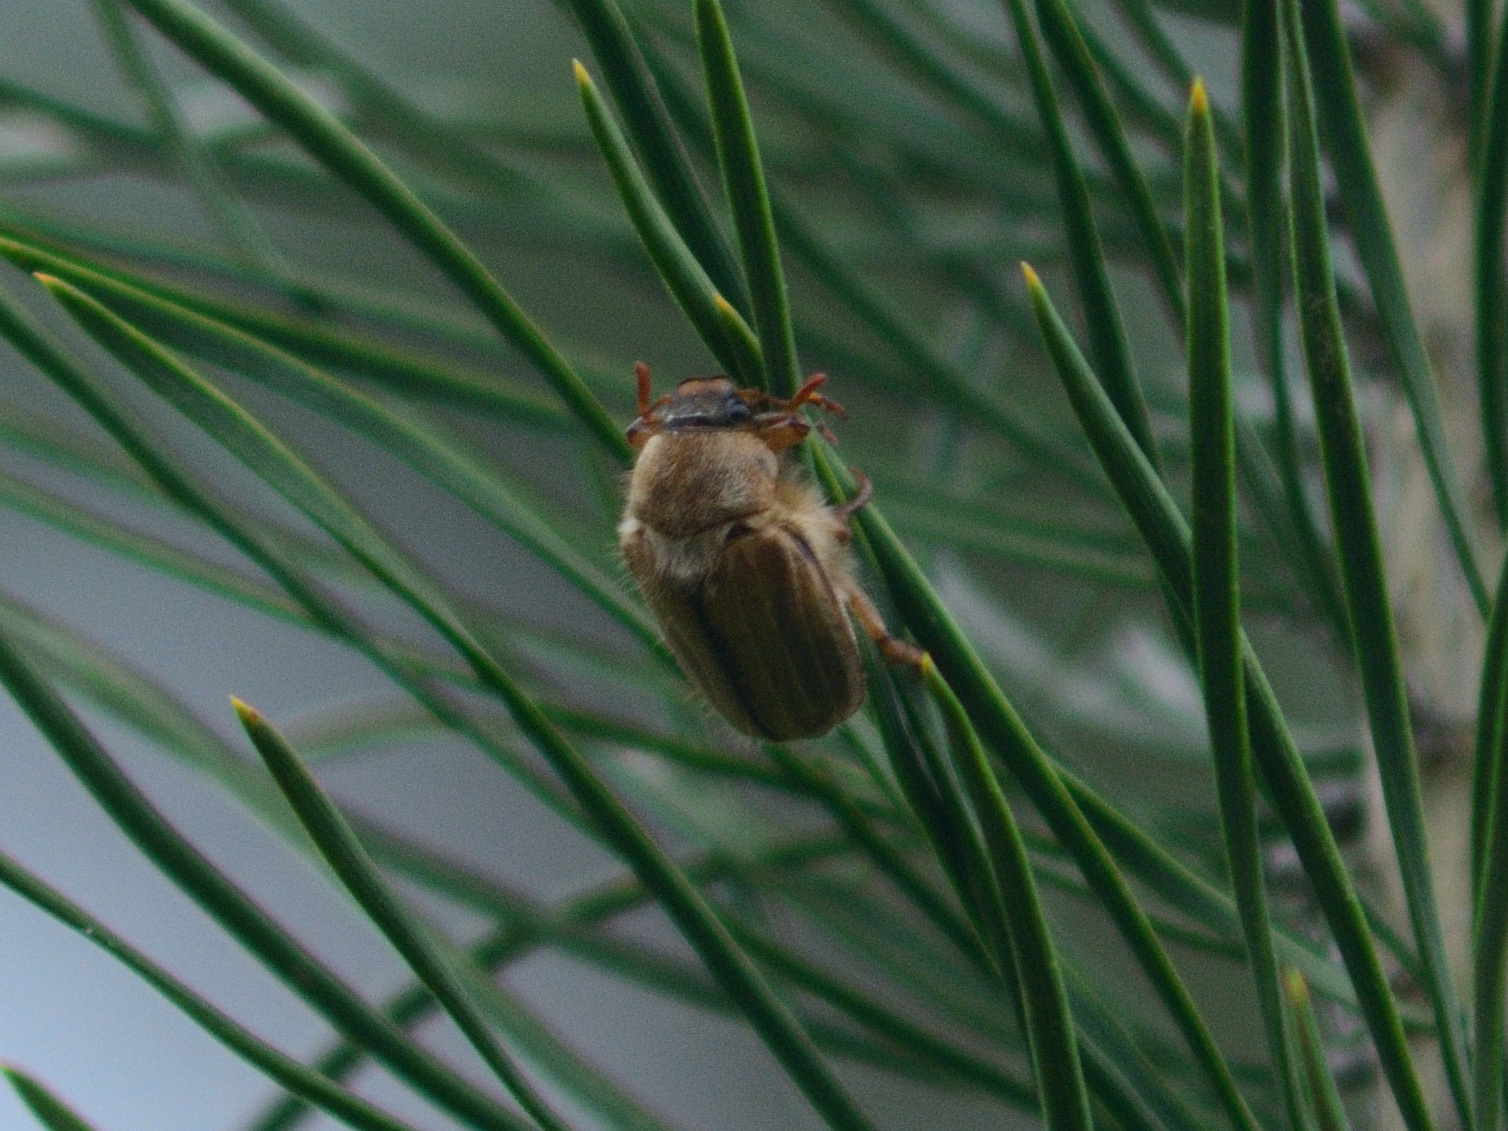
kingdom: Animalia
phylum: Arthropoda
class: Insecta
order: Coleoptera
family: Scarabaeidae
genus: Amphimallon
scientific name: Amphimallon solstitiale
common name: Summer chafer
